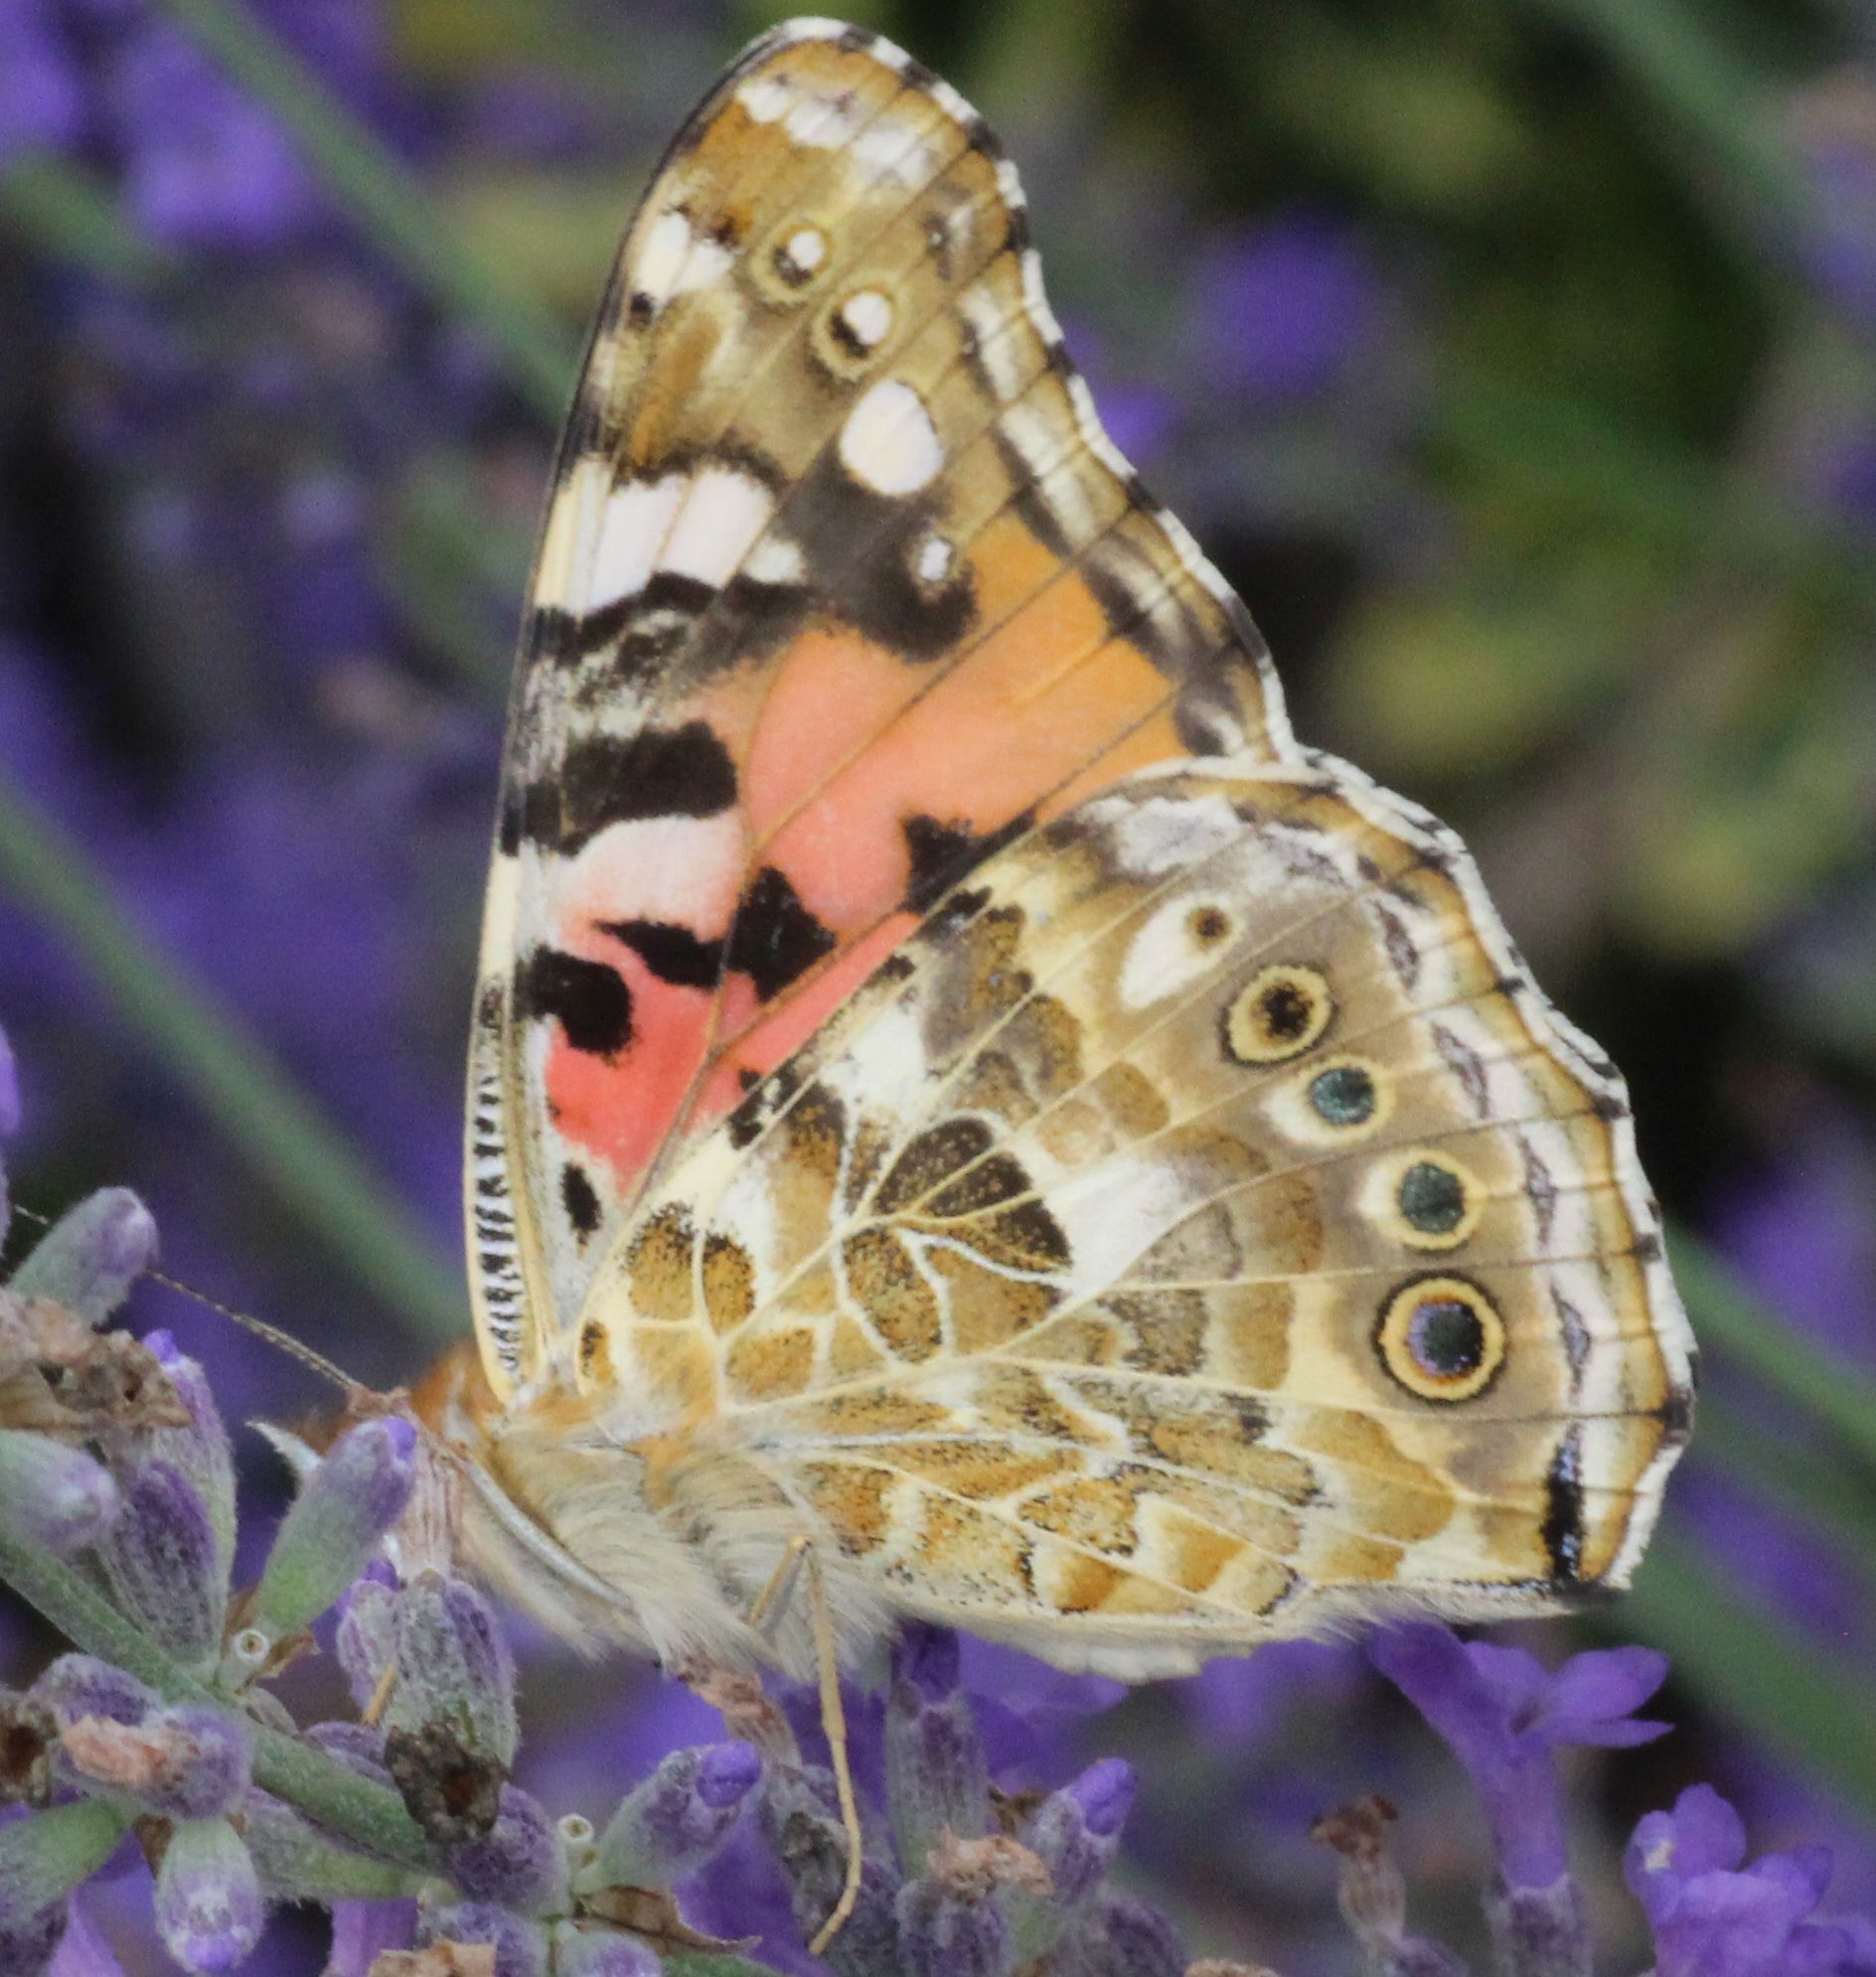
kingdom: Animalia
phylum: Arthropoda
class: Insecta
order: Lepidoptera
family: Nymphalidae
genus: Vanessa
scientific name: Vanessa cardui
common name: Painted lady
